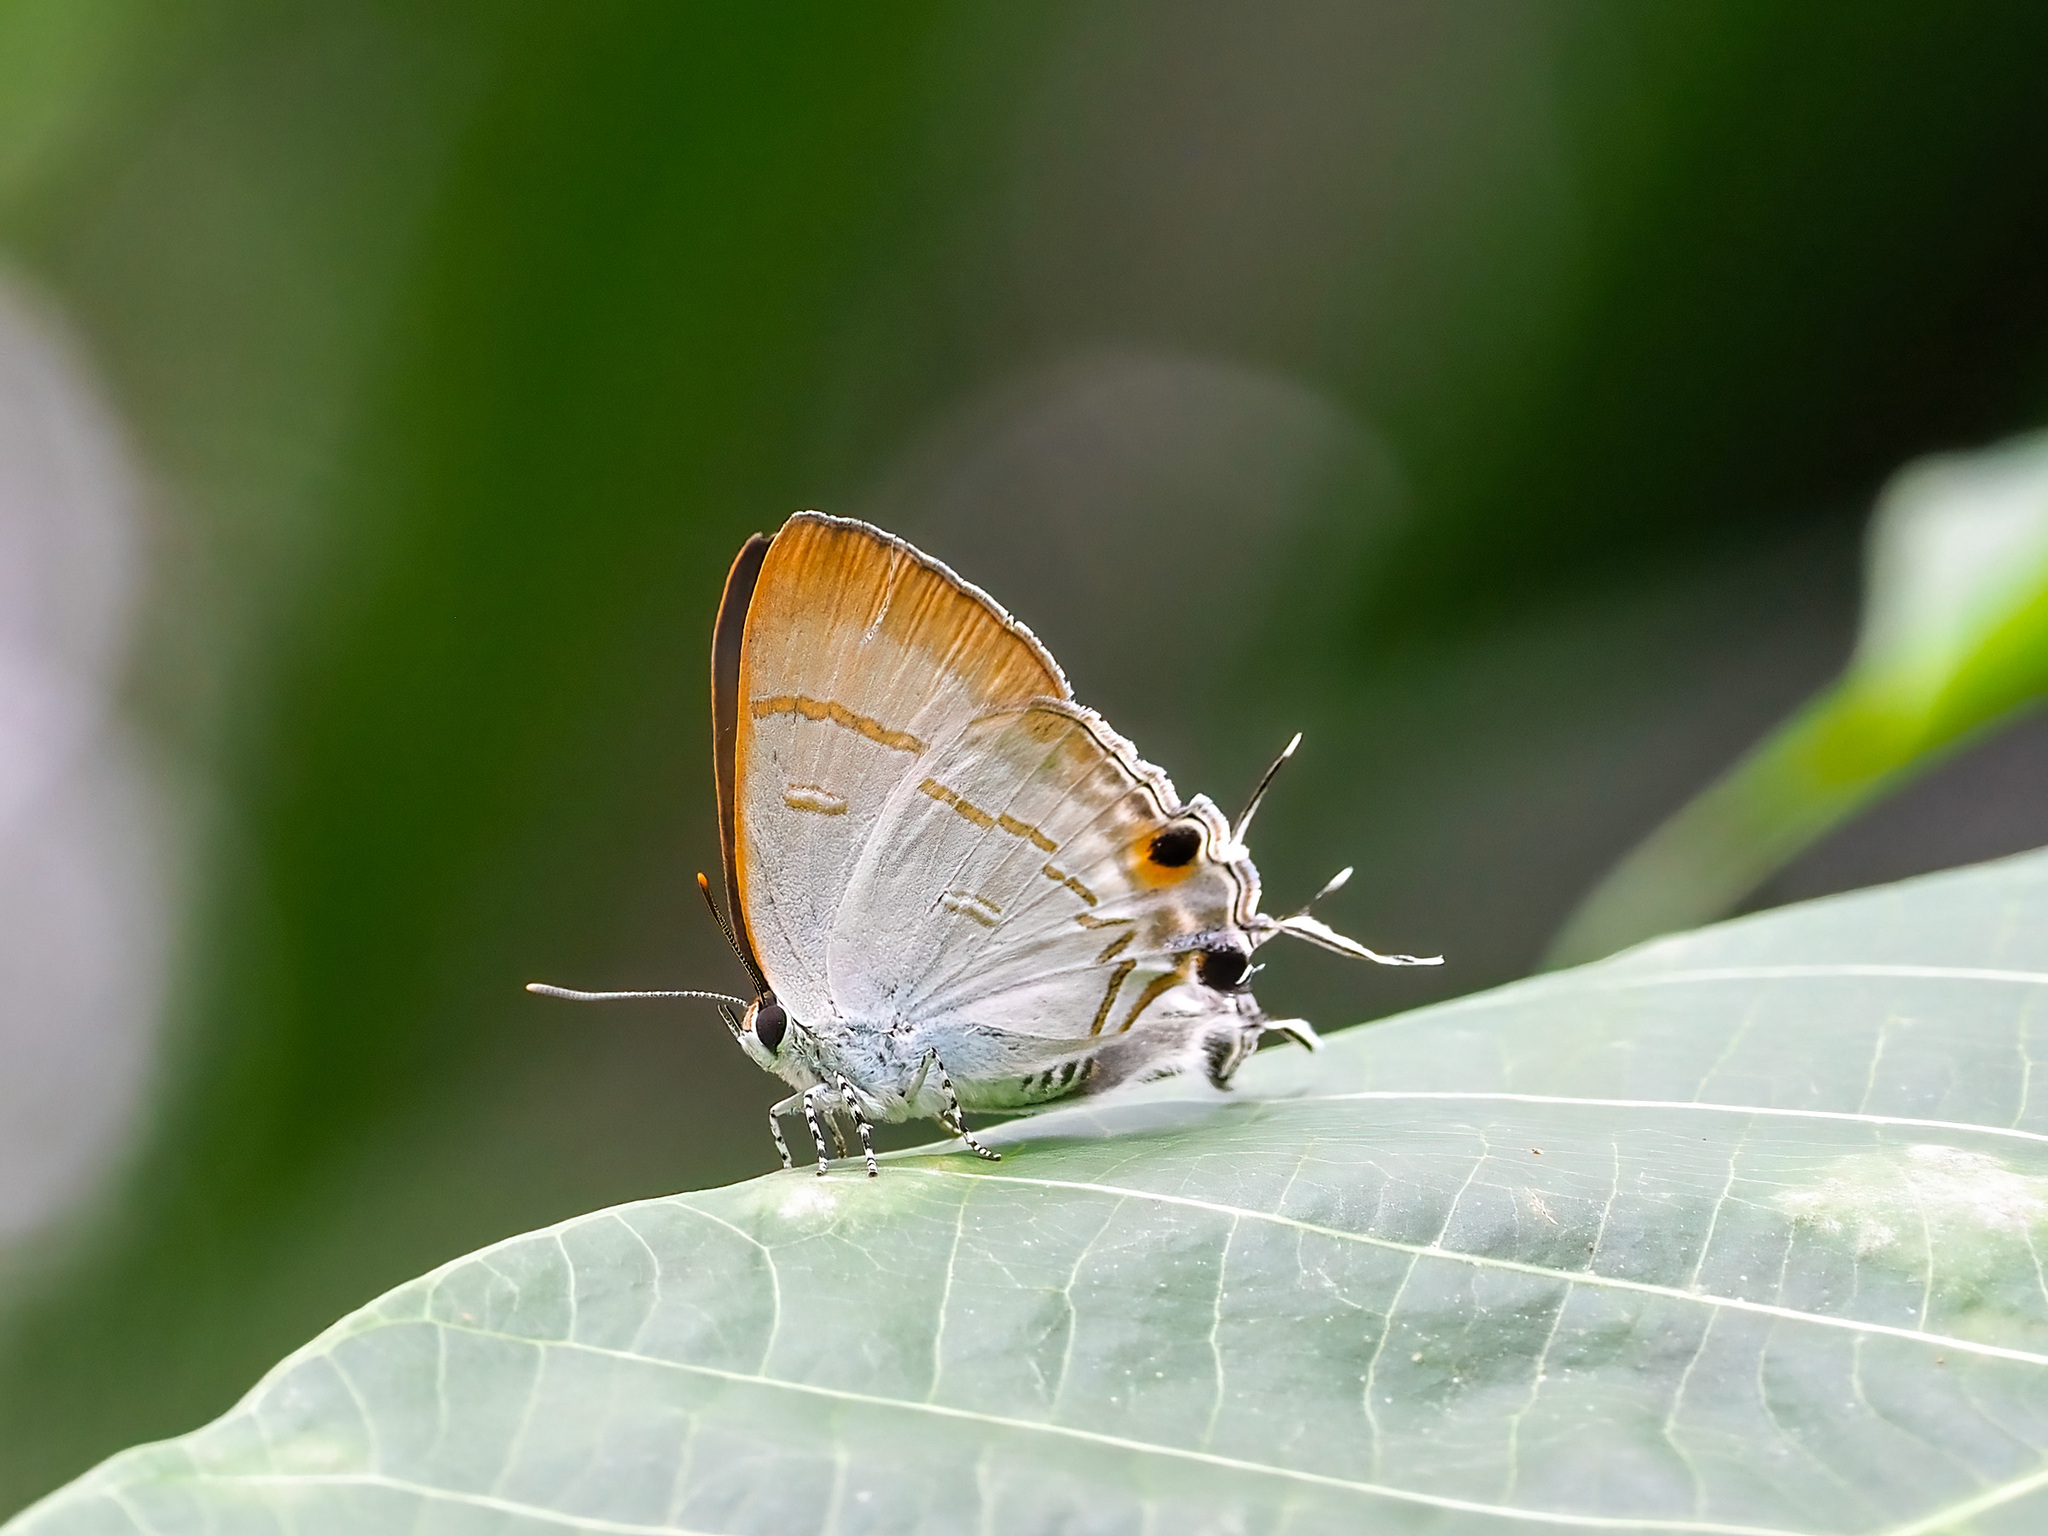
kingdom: Animalia
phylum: Arthropoda
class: Insecta
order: Lepidoptera
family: Lycaenidae
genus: Hypolycaena
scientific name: Hypolycaena erylus
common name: Common tit
